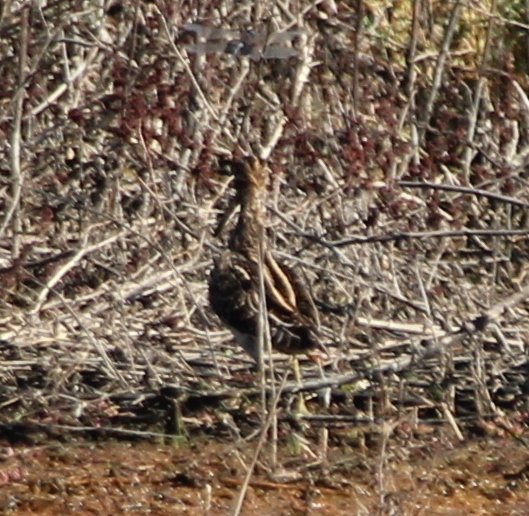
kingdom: Animalia
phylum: Chordata
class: Aves
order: Charadriiformes
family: Scolopacidae
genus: Gallinago
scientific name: Gallinago delicata
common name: Wilson's snipe
